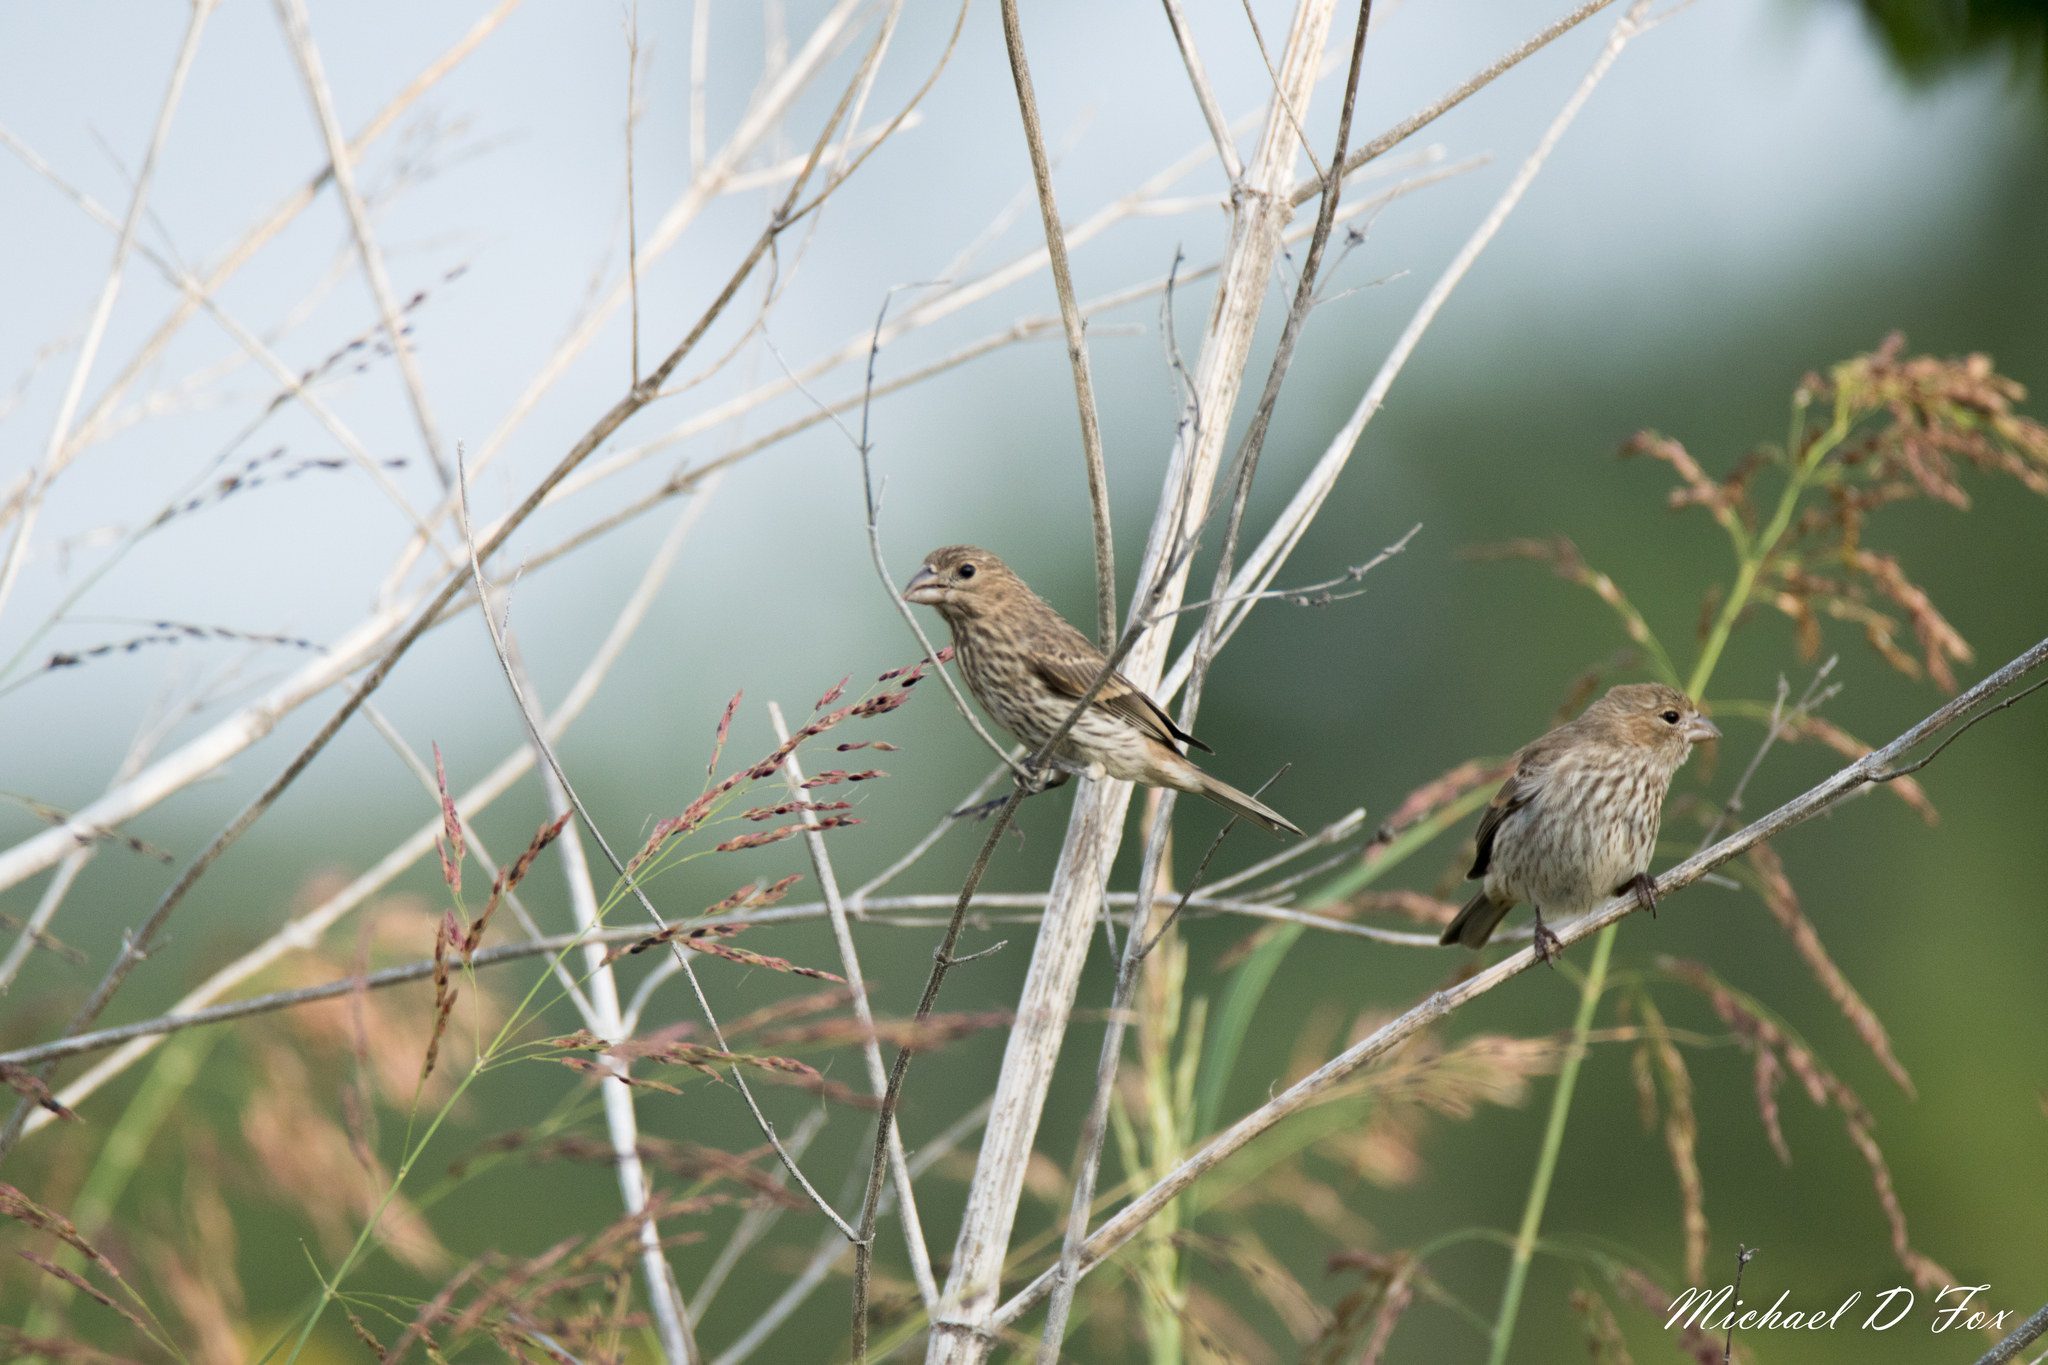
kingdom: Animalia
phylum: Chordata
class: Aves
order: Passeriformes
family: Fringillidae
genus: Haemorhous
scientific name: Haemorhous mexicanus
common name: House finch
